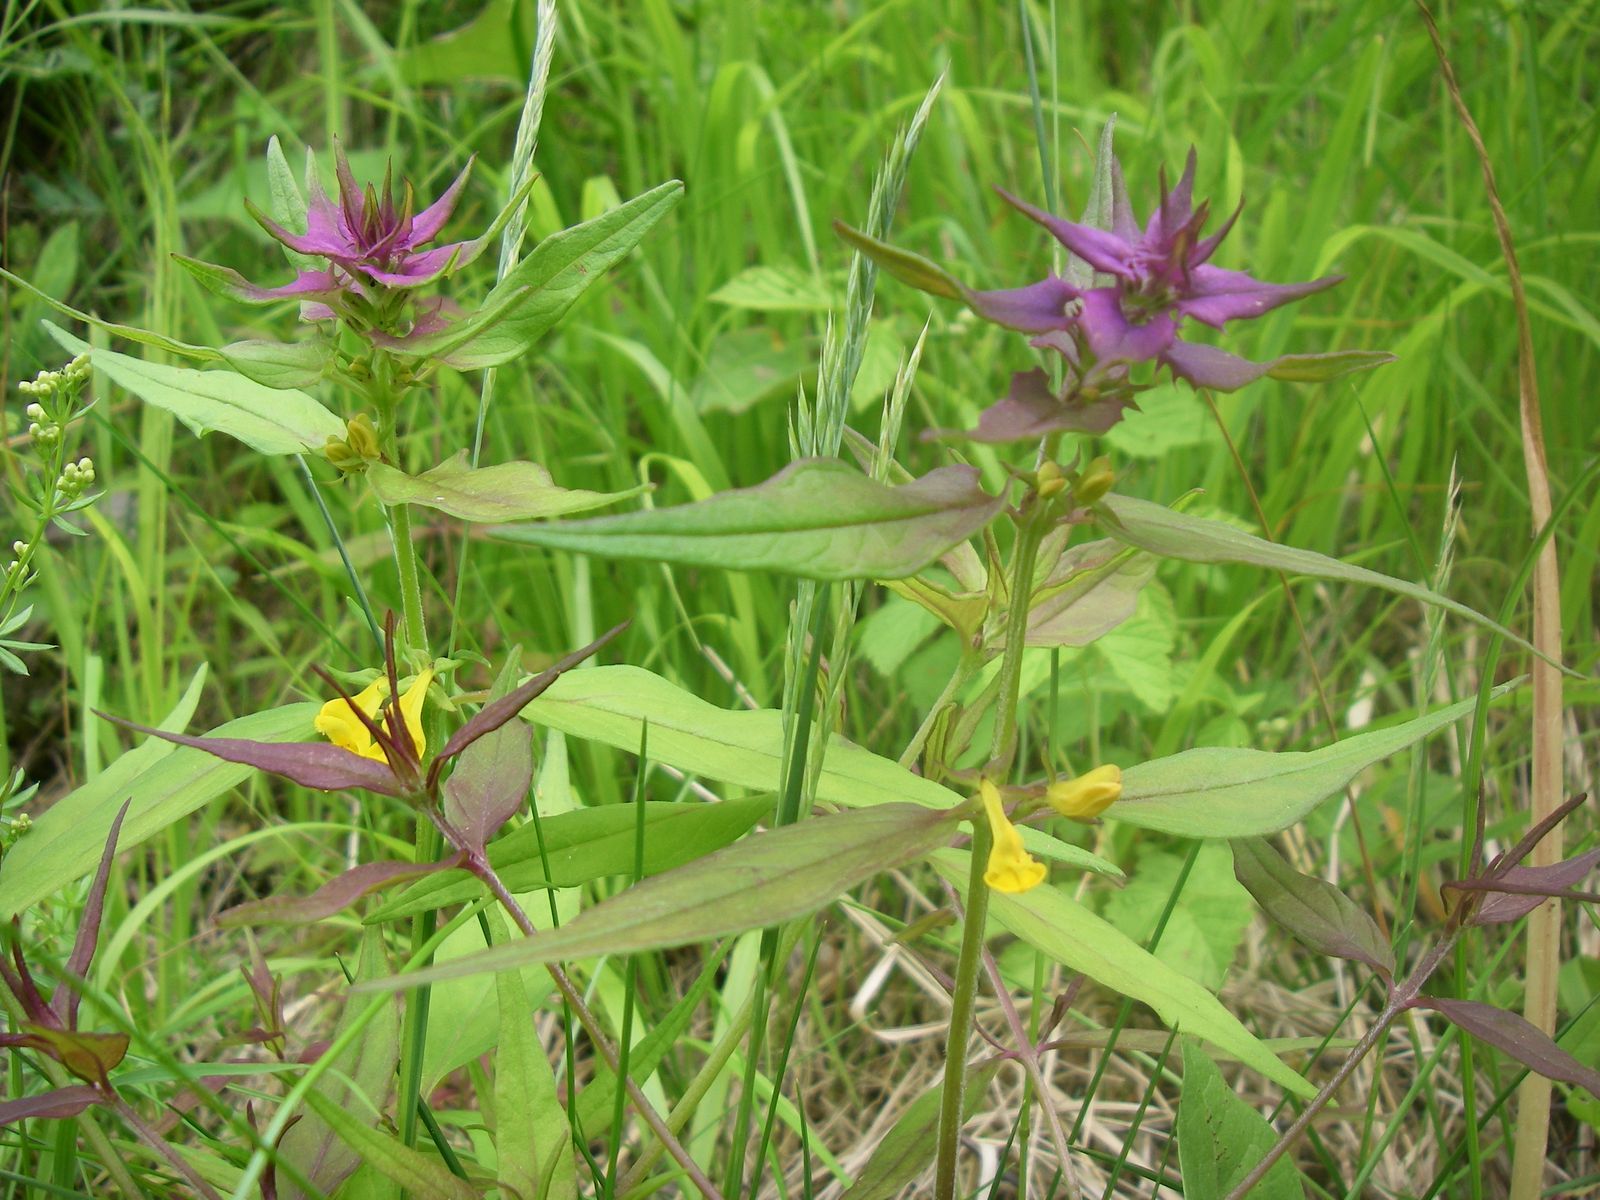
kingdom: Plantae
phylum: Tracheophyta
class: Magnoliopsida
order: Lamiales
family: Orobanchaceae
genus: Melampyrum
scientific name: Melampyrum catalaunicum
